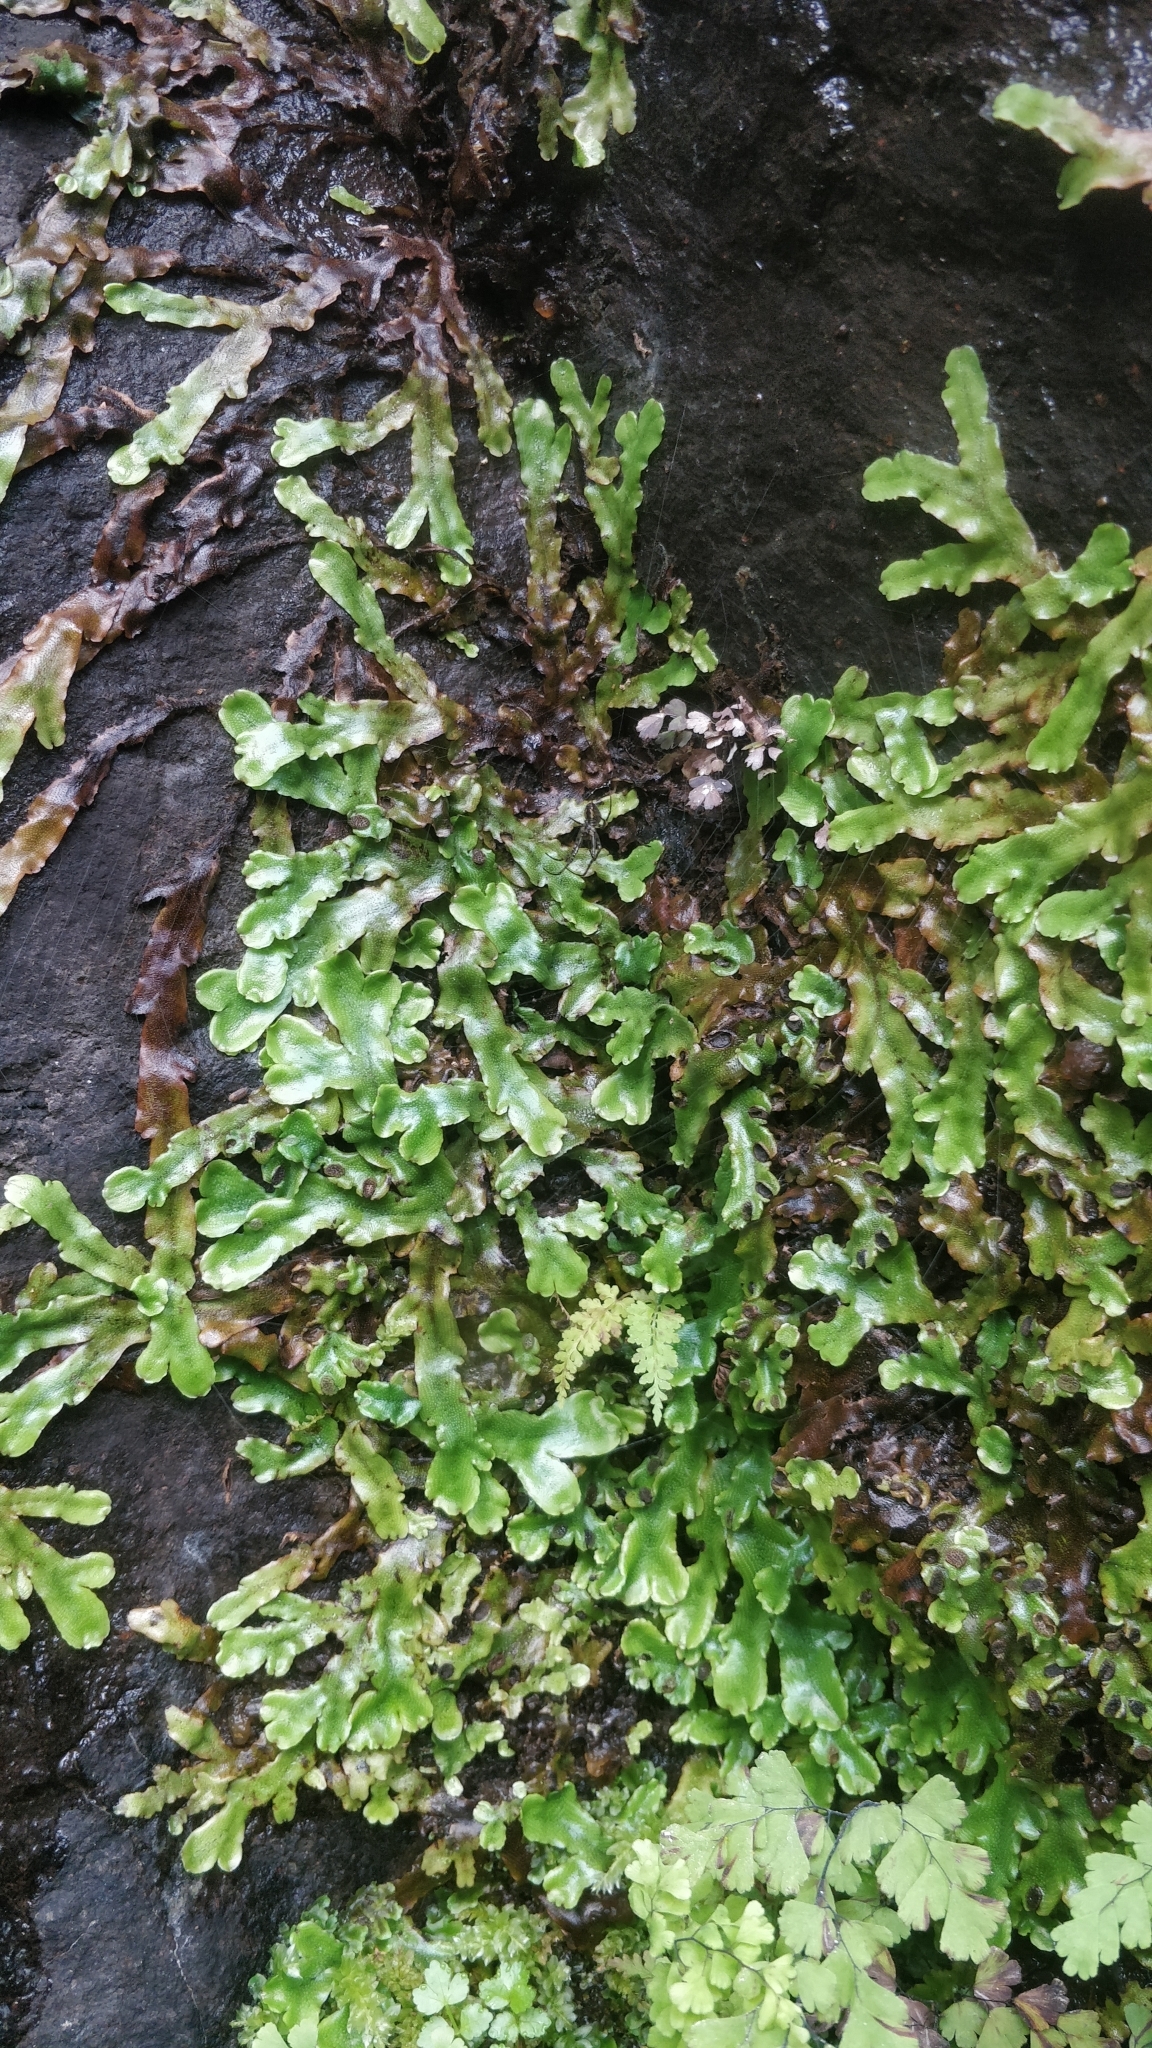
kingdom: Plantae
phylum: Marchantiophyta
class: Marchantiopsida
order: Marchantiales
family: Conocephalaceae
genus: Conocephalum
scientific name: Conocephalum conicum
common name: Great scented liverwort
